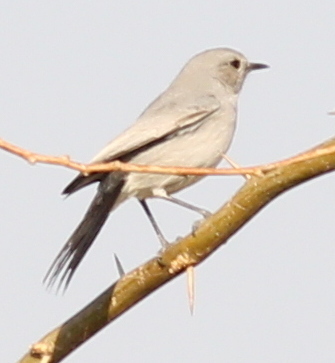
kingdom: Animalia
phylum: Chordata
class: Aves
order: Passeriformes
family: Muscicapidae
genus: Oenanthe
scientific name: Oenanthe melanura
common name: Blackstart
